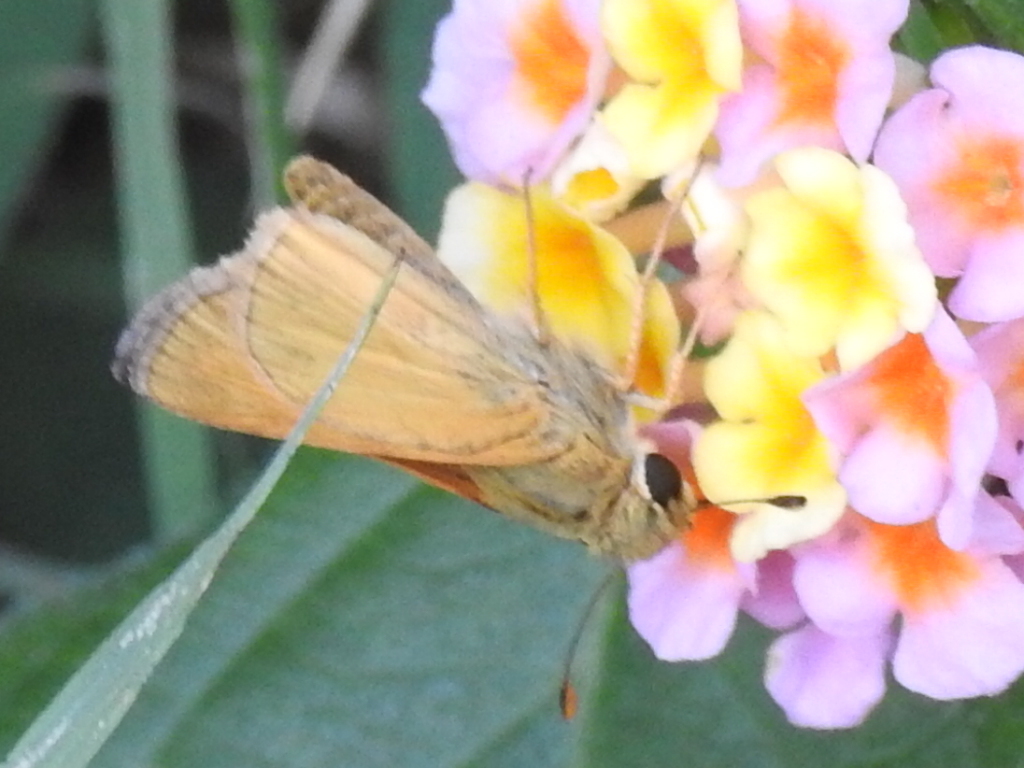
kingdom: Animalia
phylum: Arthropoda
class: Insecta
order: Lepidoptera
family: Hesperiidae
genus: Atalopedes
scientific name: Atalopedes
